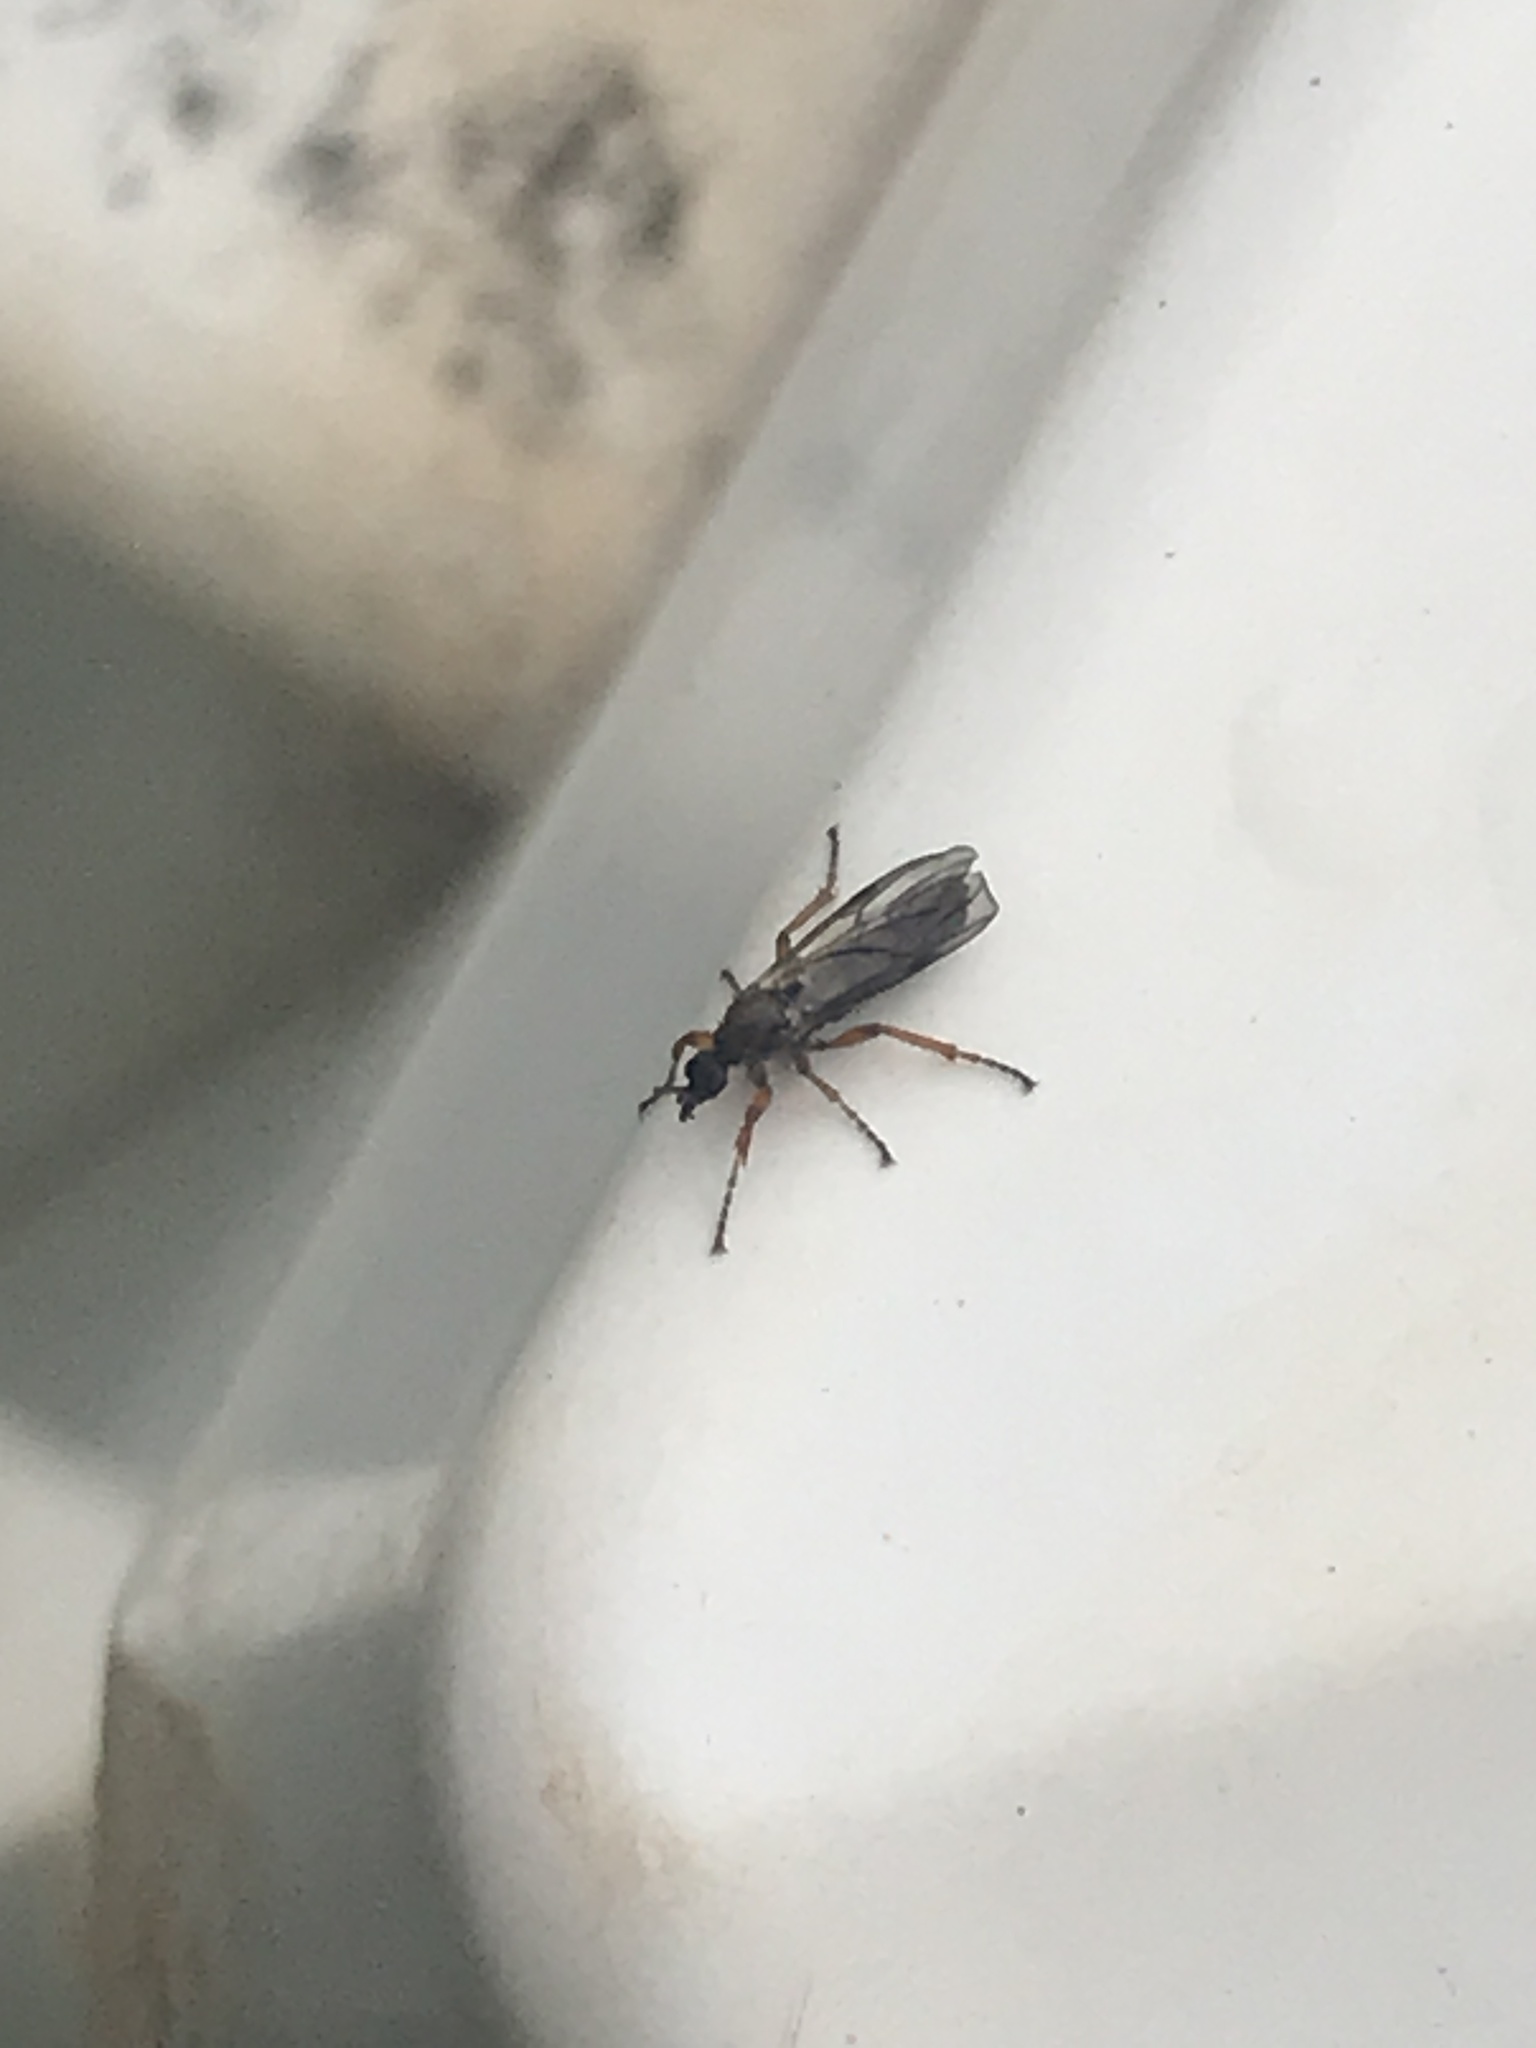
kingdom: Animalia
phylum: Arthropoda
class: Insecta
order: Diptera
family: Bibionidae
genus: Bibio
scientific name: Bibio alexanderi
